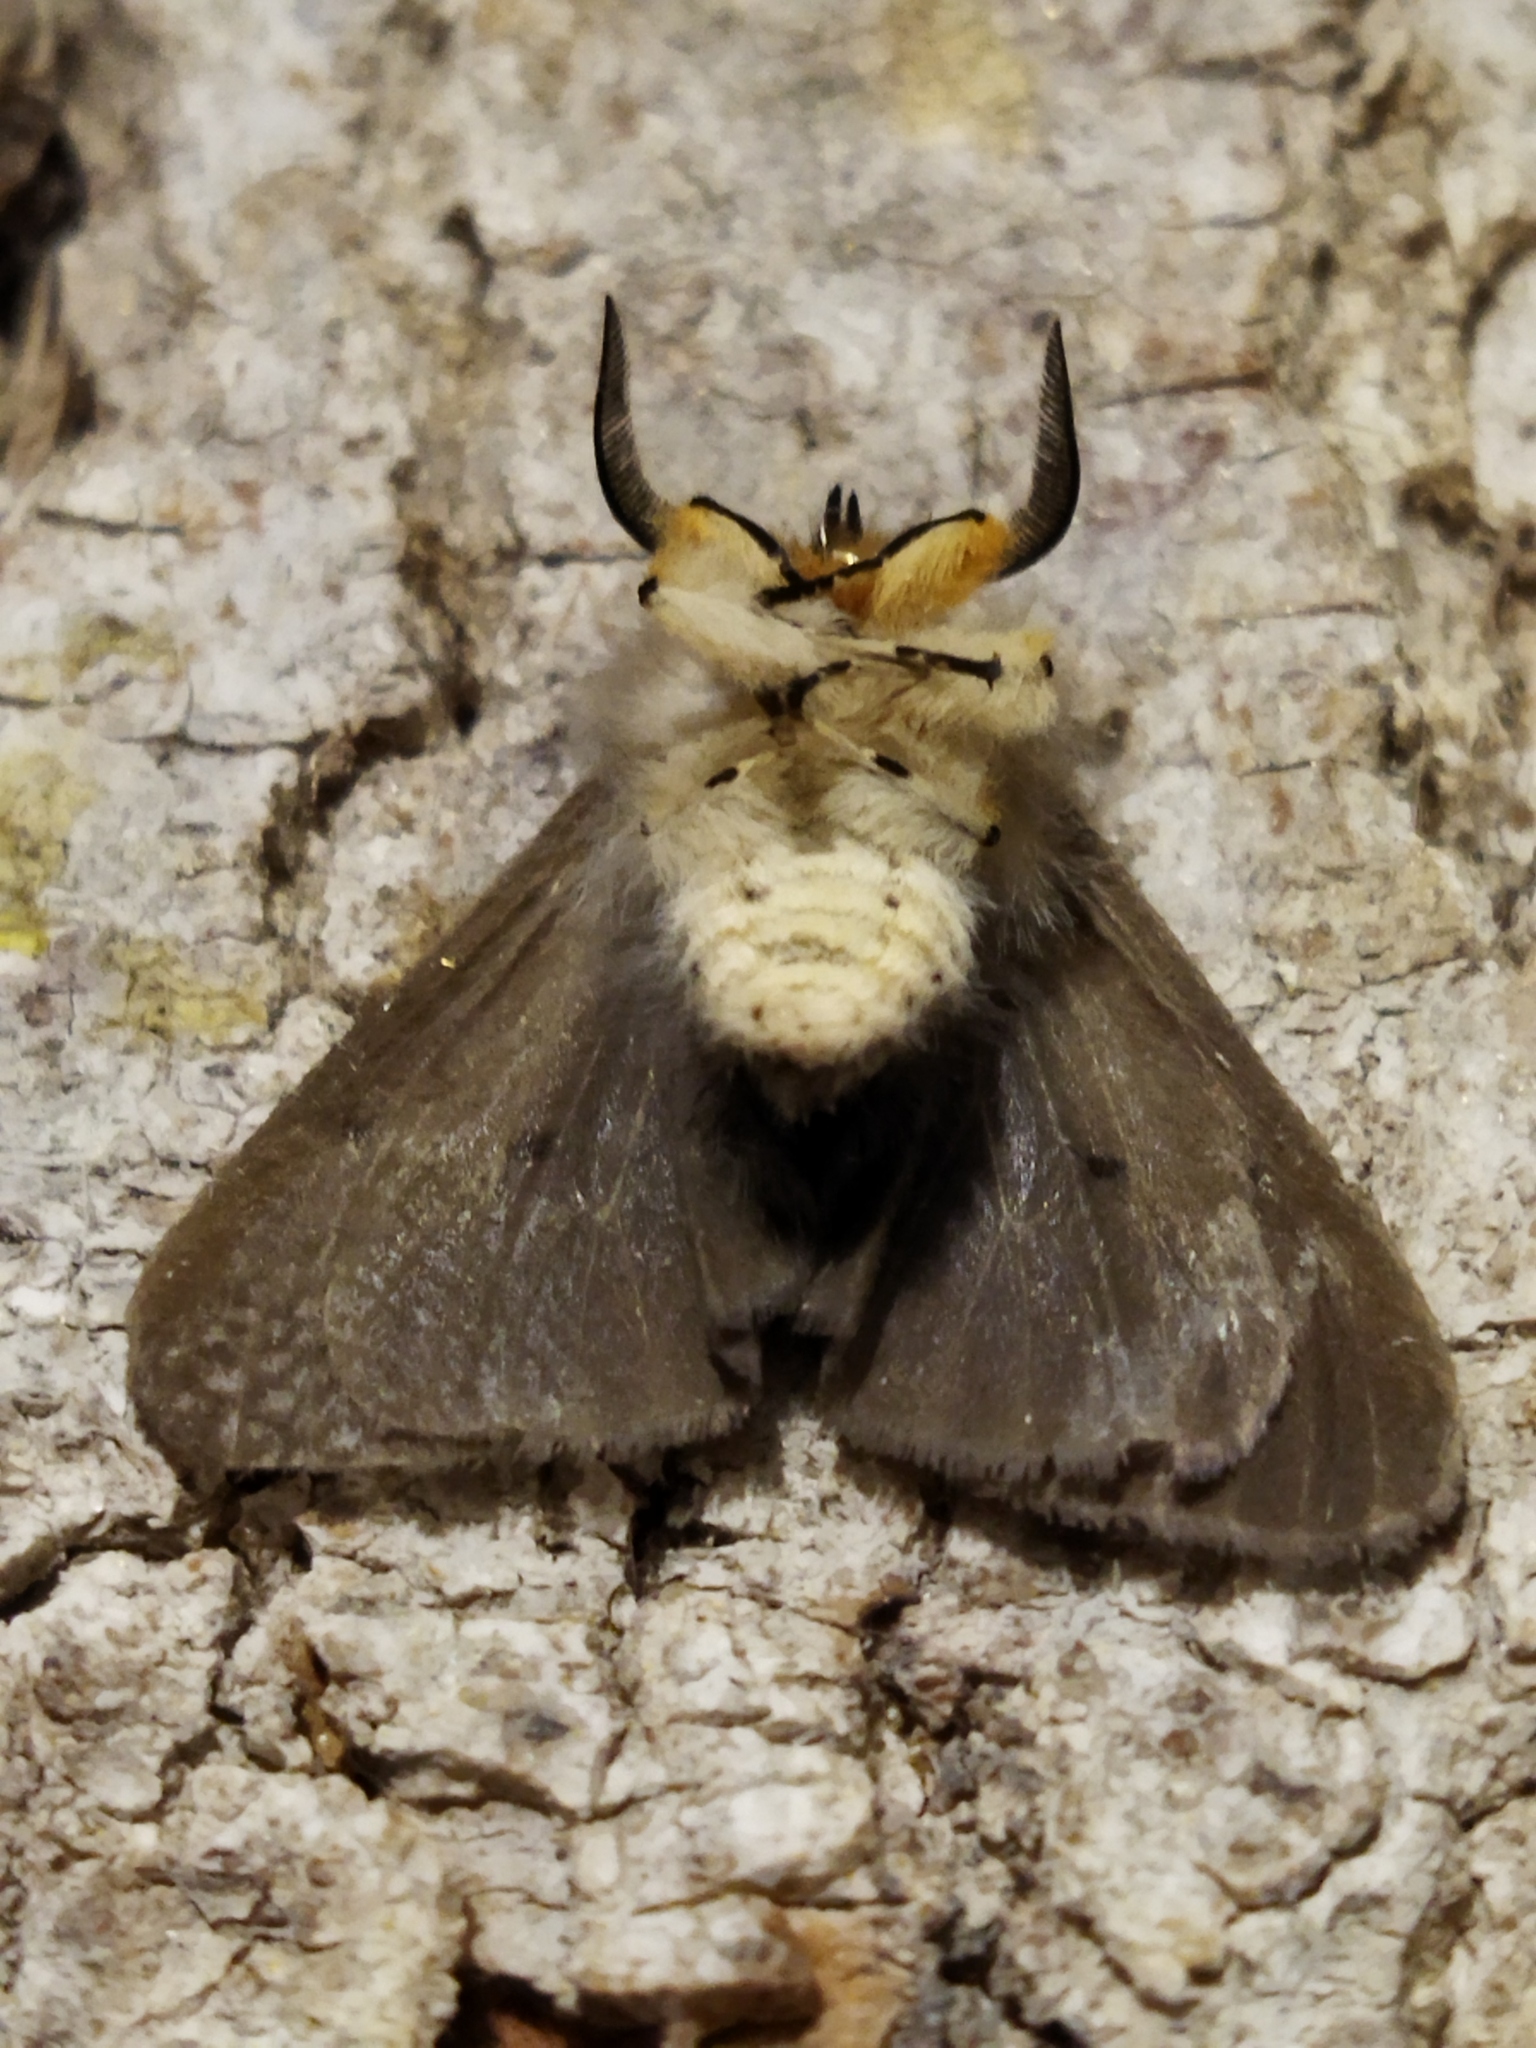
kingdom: Animalia
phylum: Arthropoda
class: Insecta
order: Lepidoptera
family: Erebidae
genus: Diaphora
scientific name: Diaphora mendica
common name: Muslin moth
